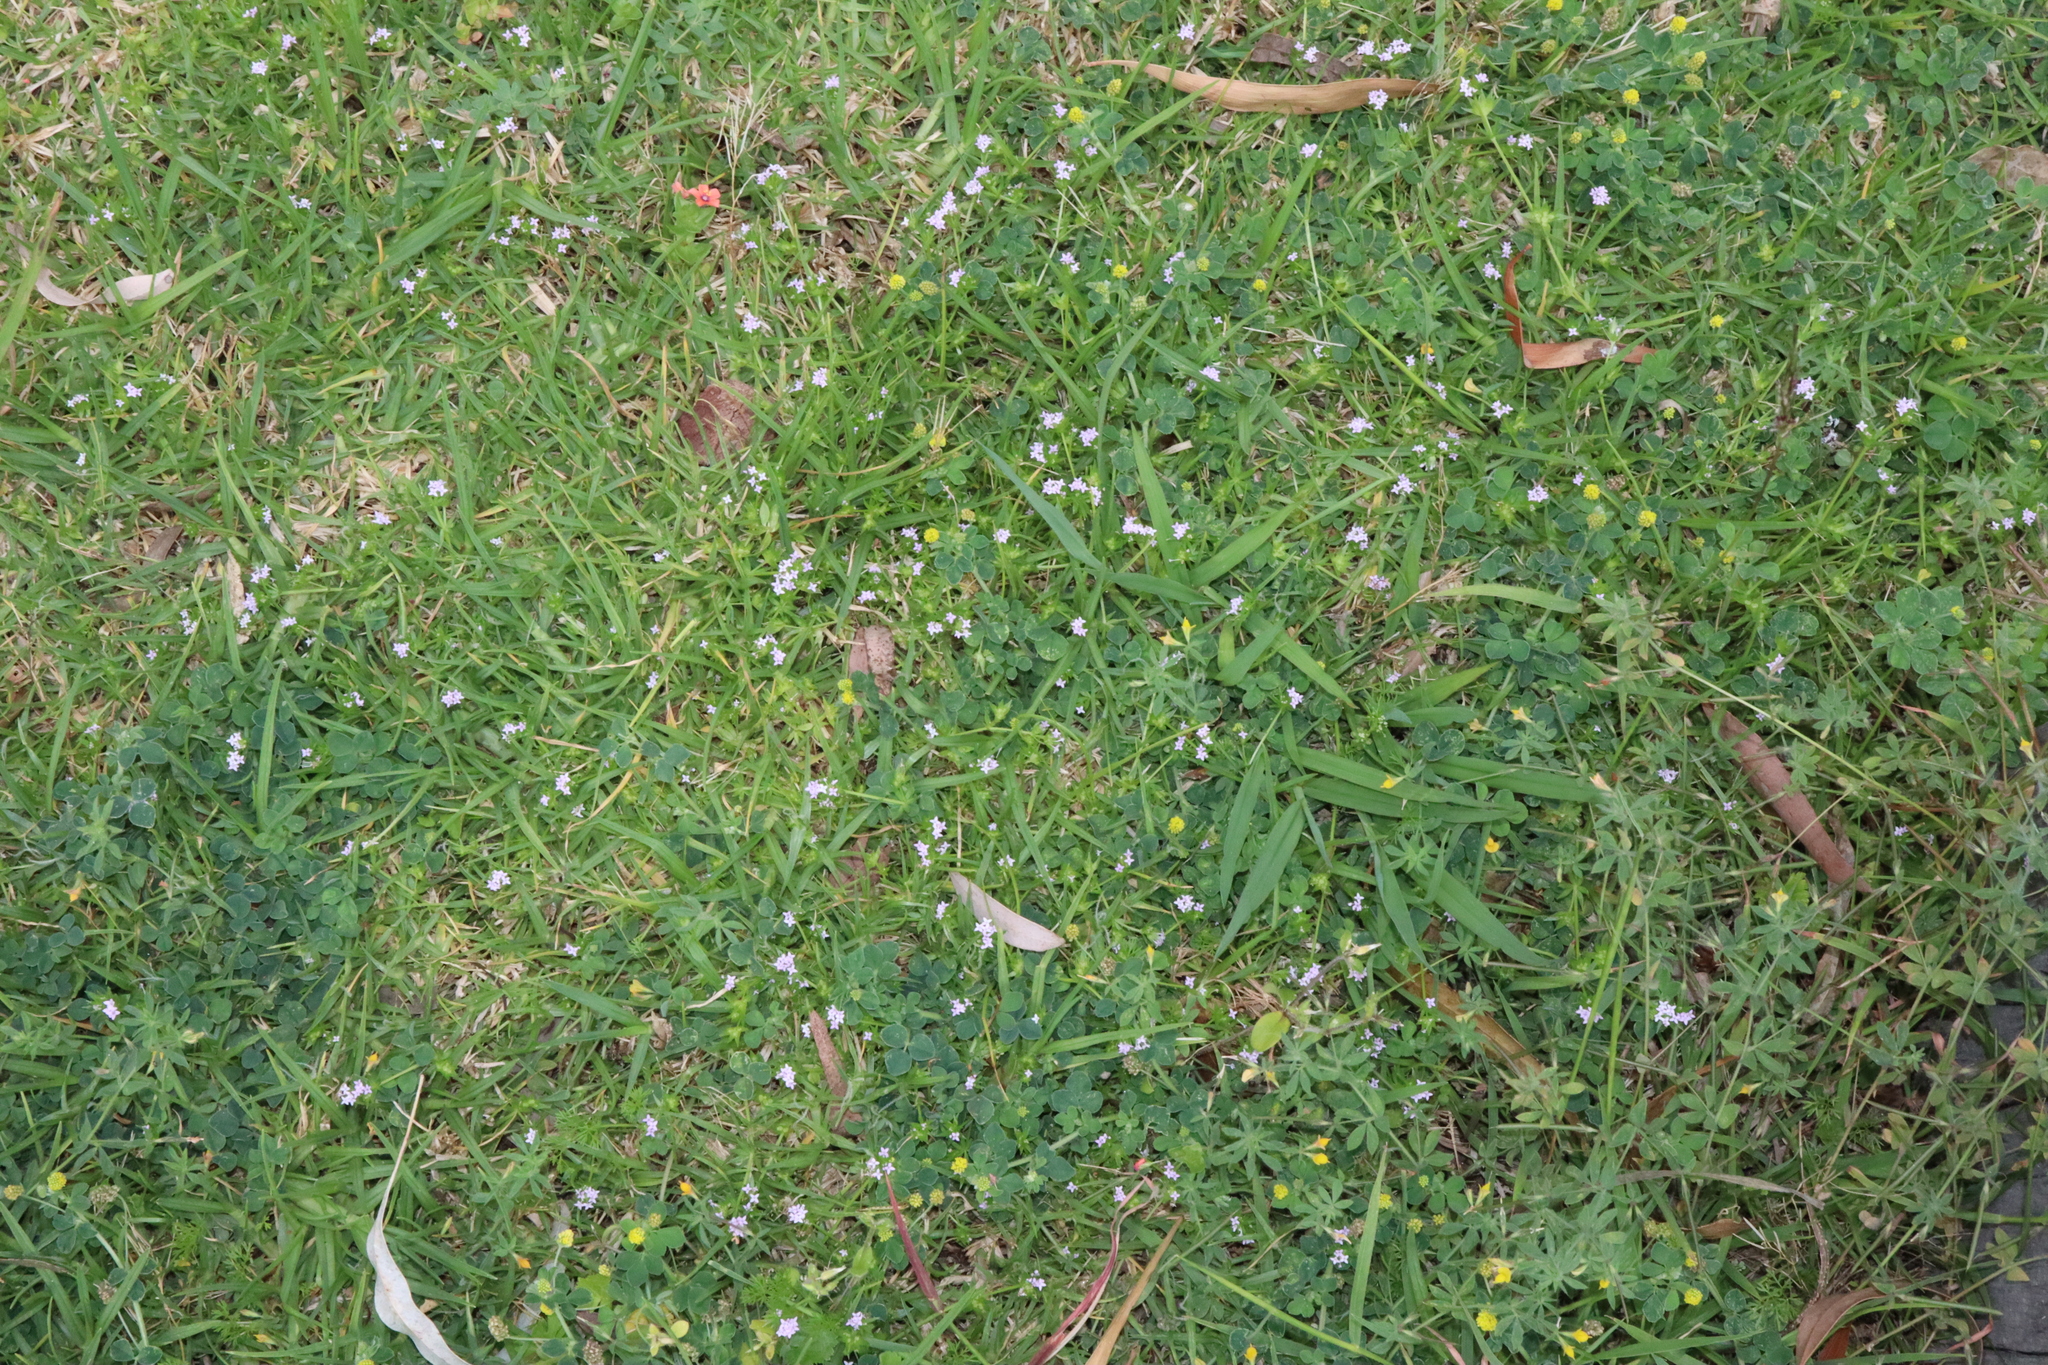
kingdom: Plantae
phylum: Tracheophyta
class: Magnoliopsida
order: Gentianales
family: Rubiaceae
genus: Sherardia
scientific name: Sherardia arvensis
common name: Field madder
